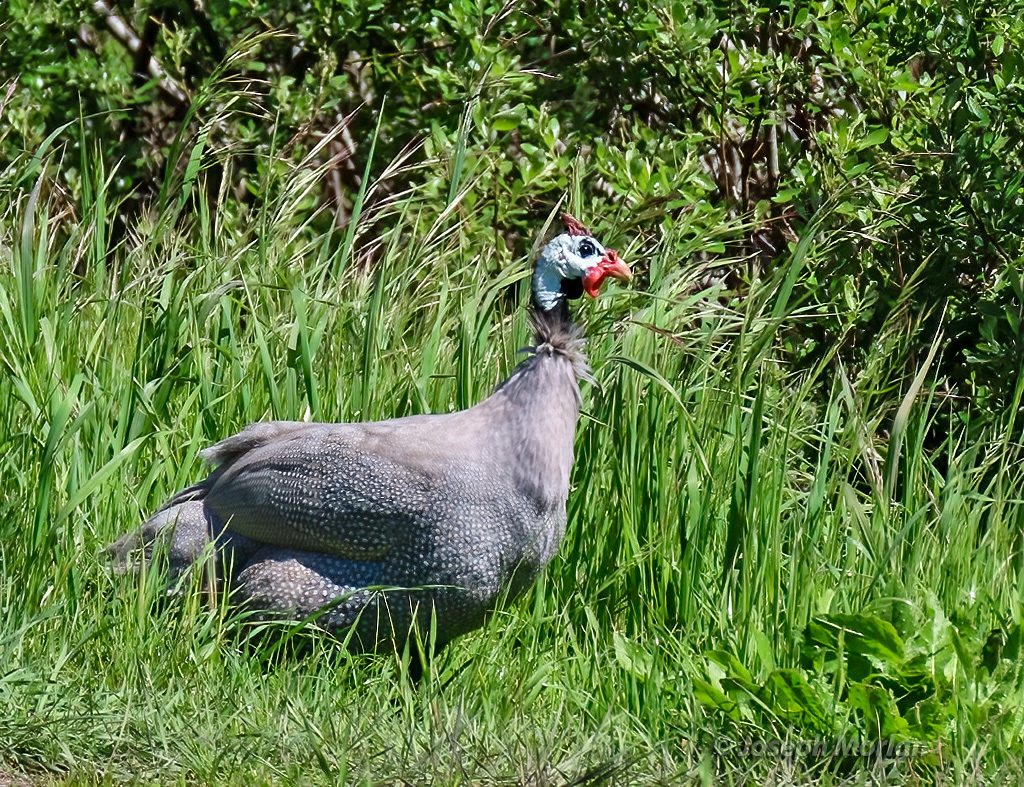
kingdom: Animalia
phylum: Chordata
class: Aves
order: Galliformes
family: Numididae
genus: Numida
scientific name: Numida meleagris
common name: Helmeted guineafowl
